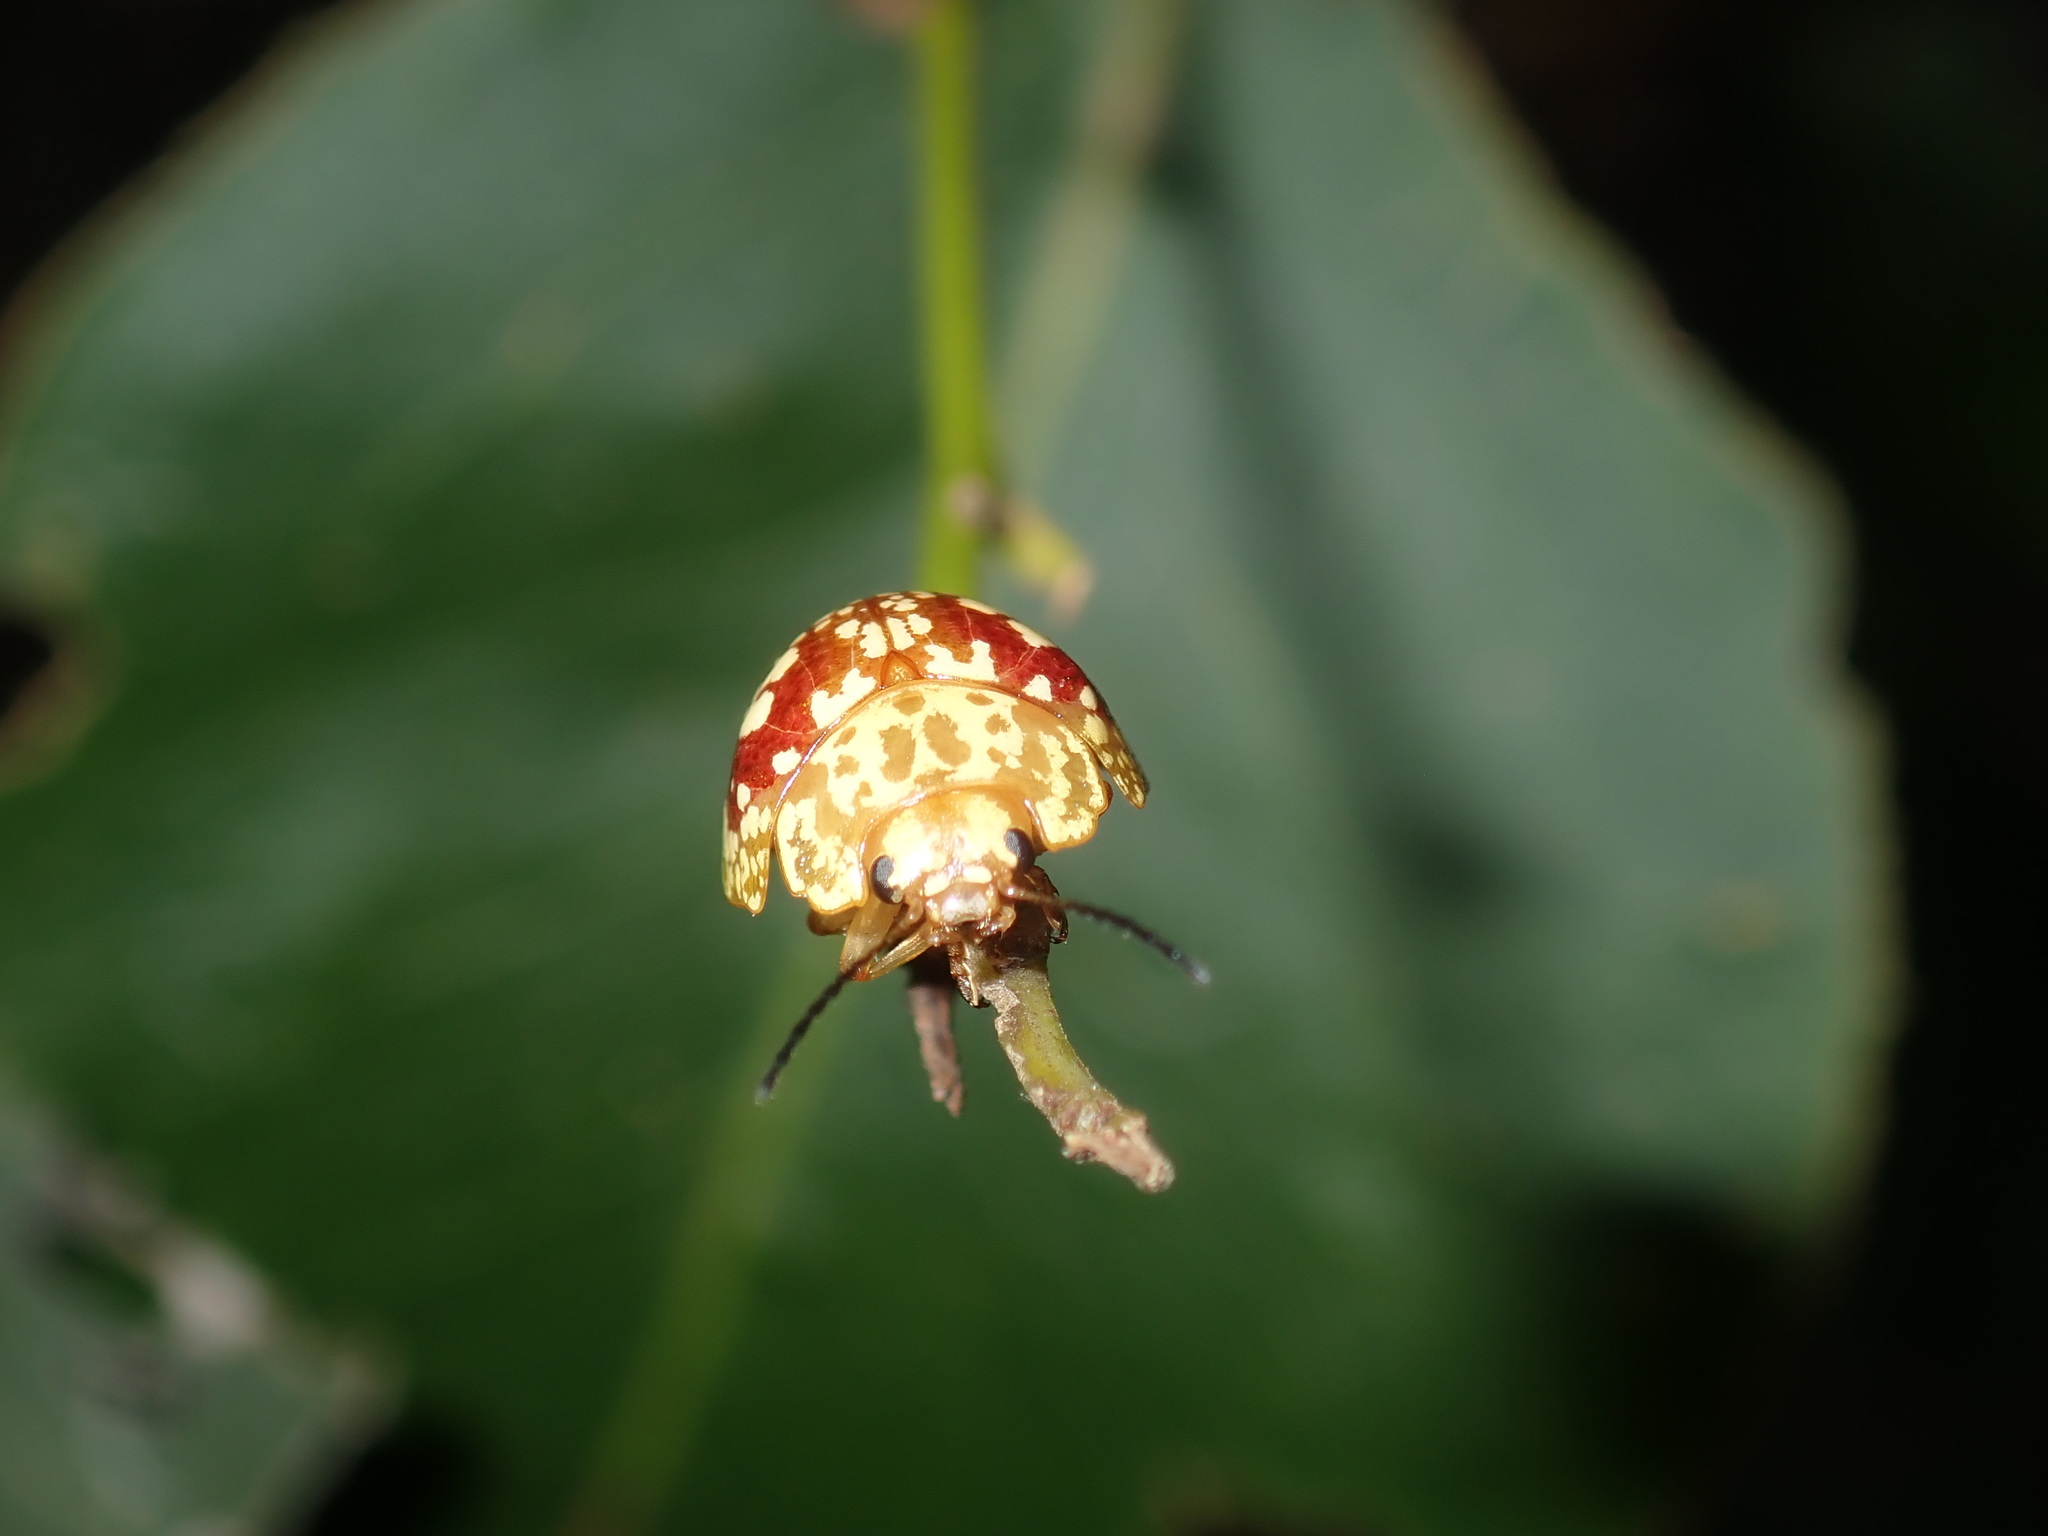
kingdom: Animalia
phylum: Arthropoda
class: Insecta
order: Coleoptera
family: Chrysomelidae
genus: Paropsis
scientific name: Paropsis maculata
